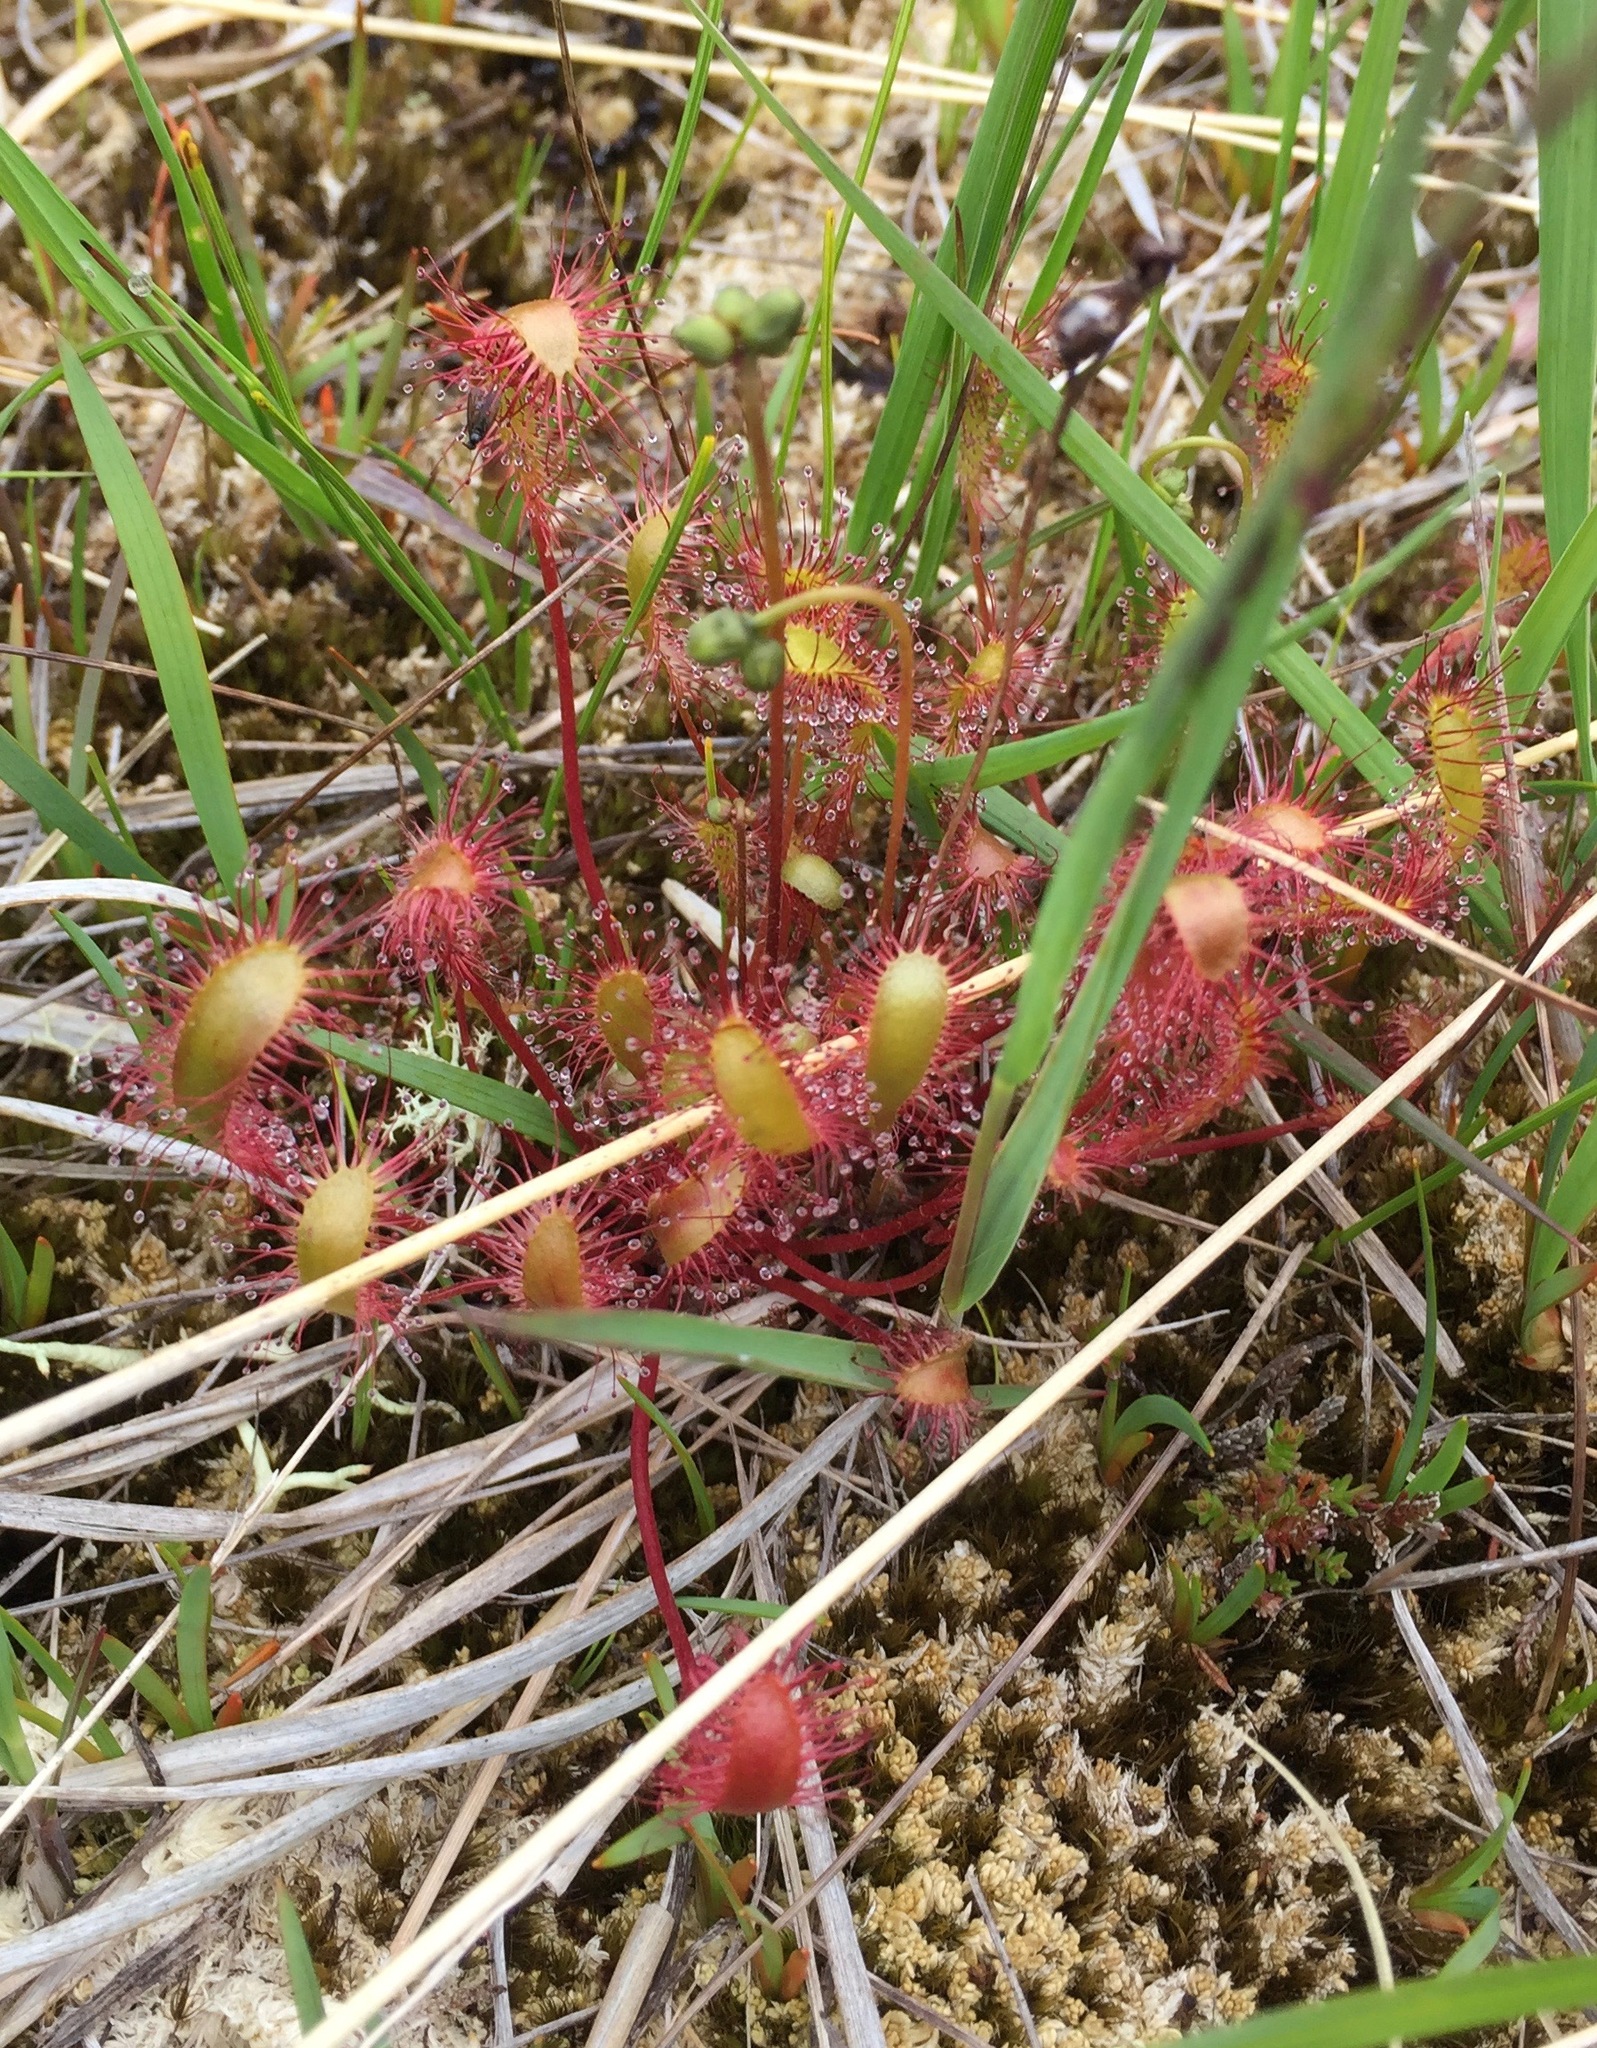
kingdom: Plantae
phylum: Tracheophyta
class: Magnoliopsida
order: Caryophyllales
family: Droseraceae
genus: Drosera
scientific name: Drosera anglica
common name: Great sundew
